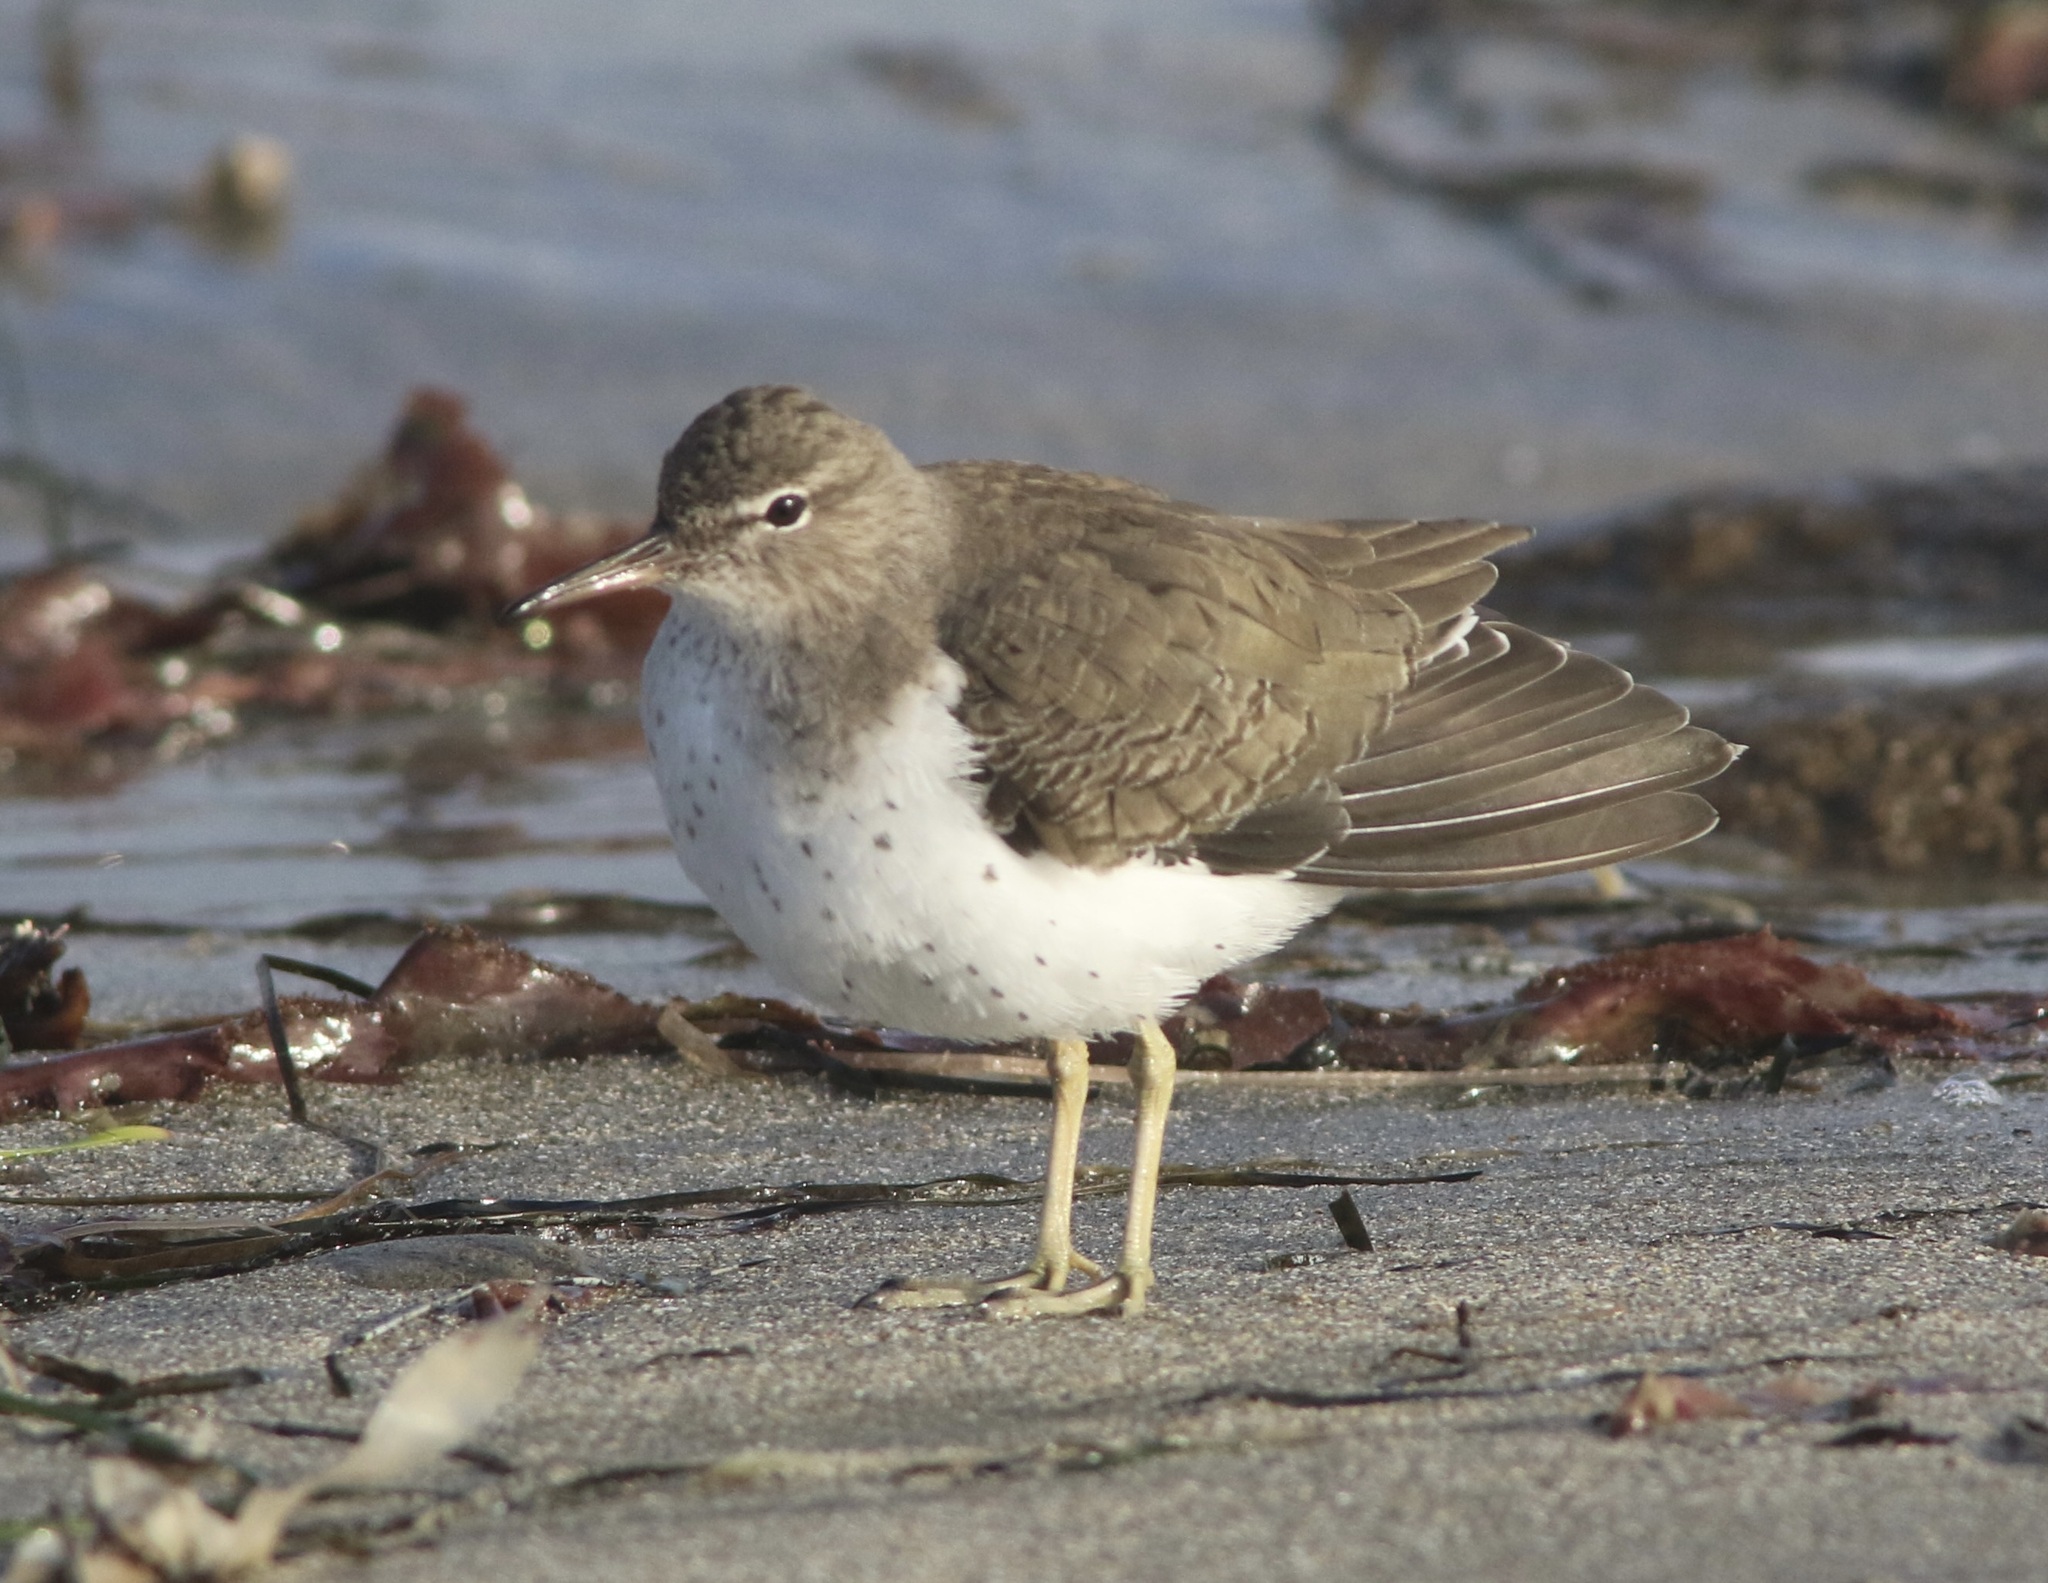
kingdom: Animalia
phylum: Chordata
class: Aves
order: Charadriiformes
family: Scolopacidae
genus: Actitis
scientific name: Actitis macularius
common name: Spotted sandpiper
